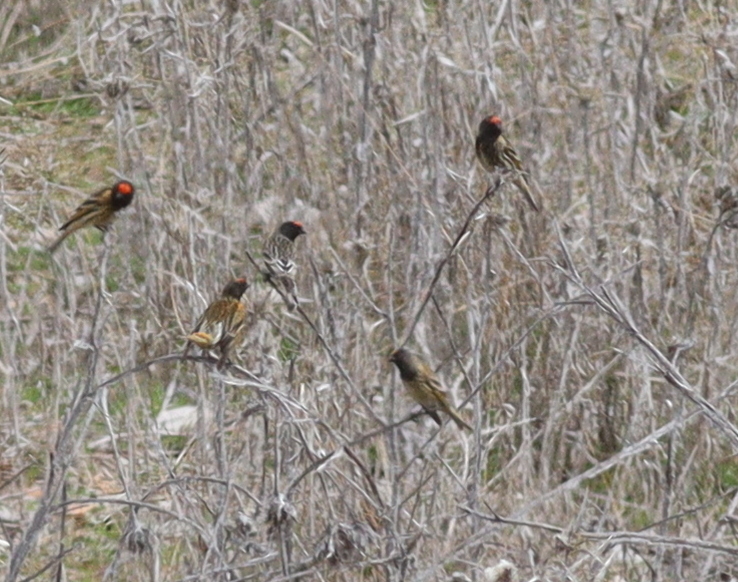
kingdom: Animalia
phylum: Chordata
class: Aves
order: Passeriformes
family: Fringillidae
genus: Serinus
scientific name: Serinus pusillus
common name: Red-fronted serin
